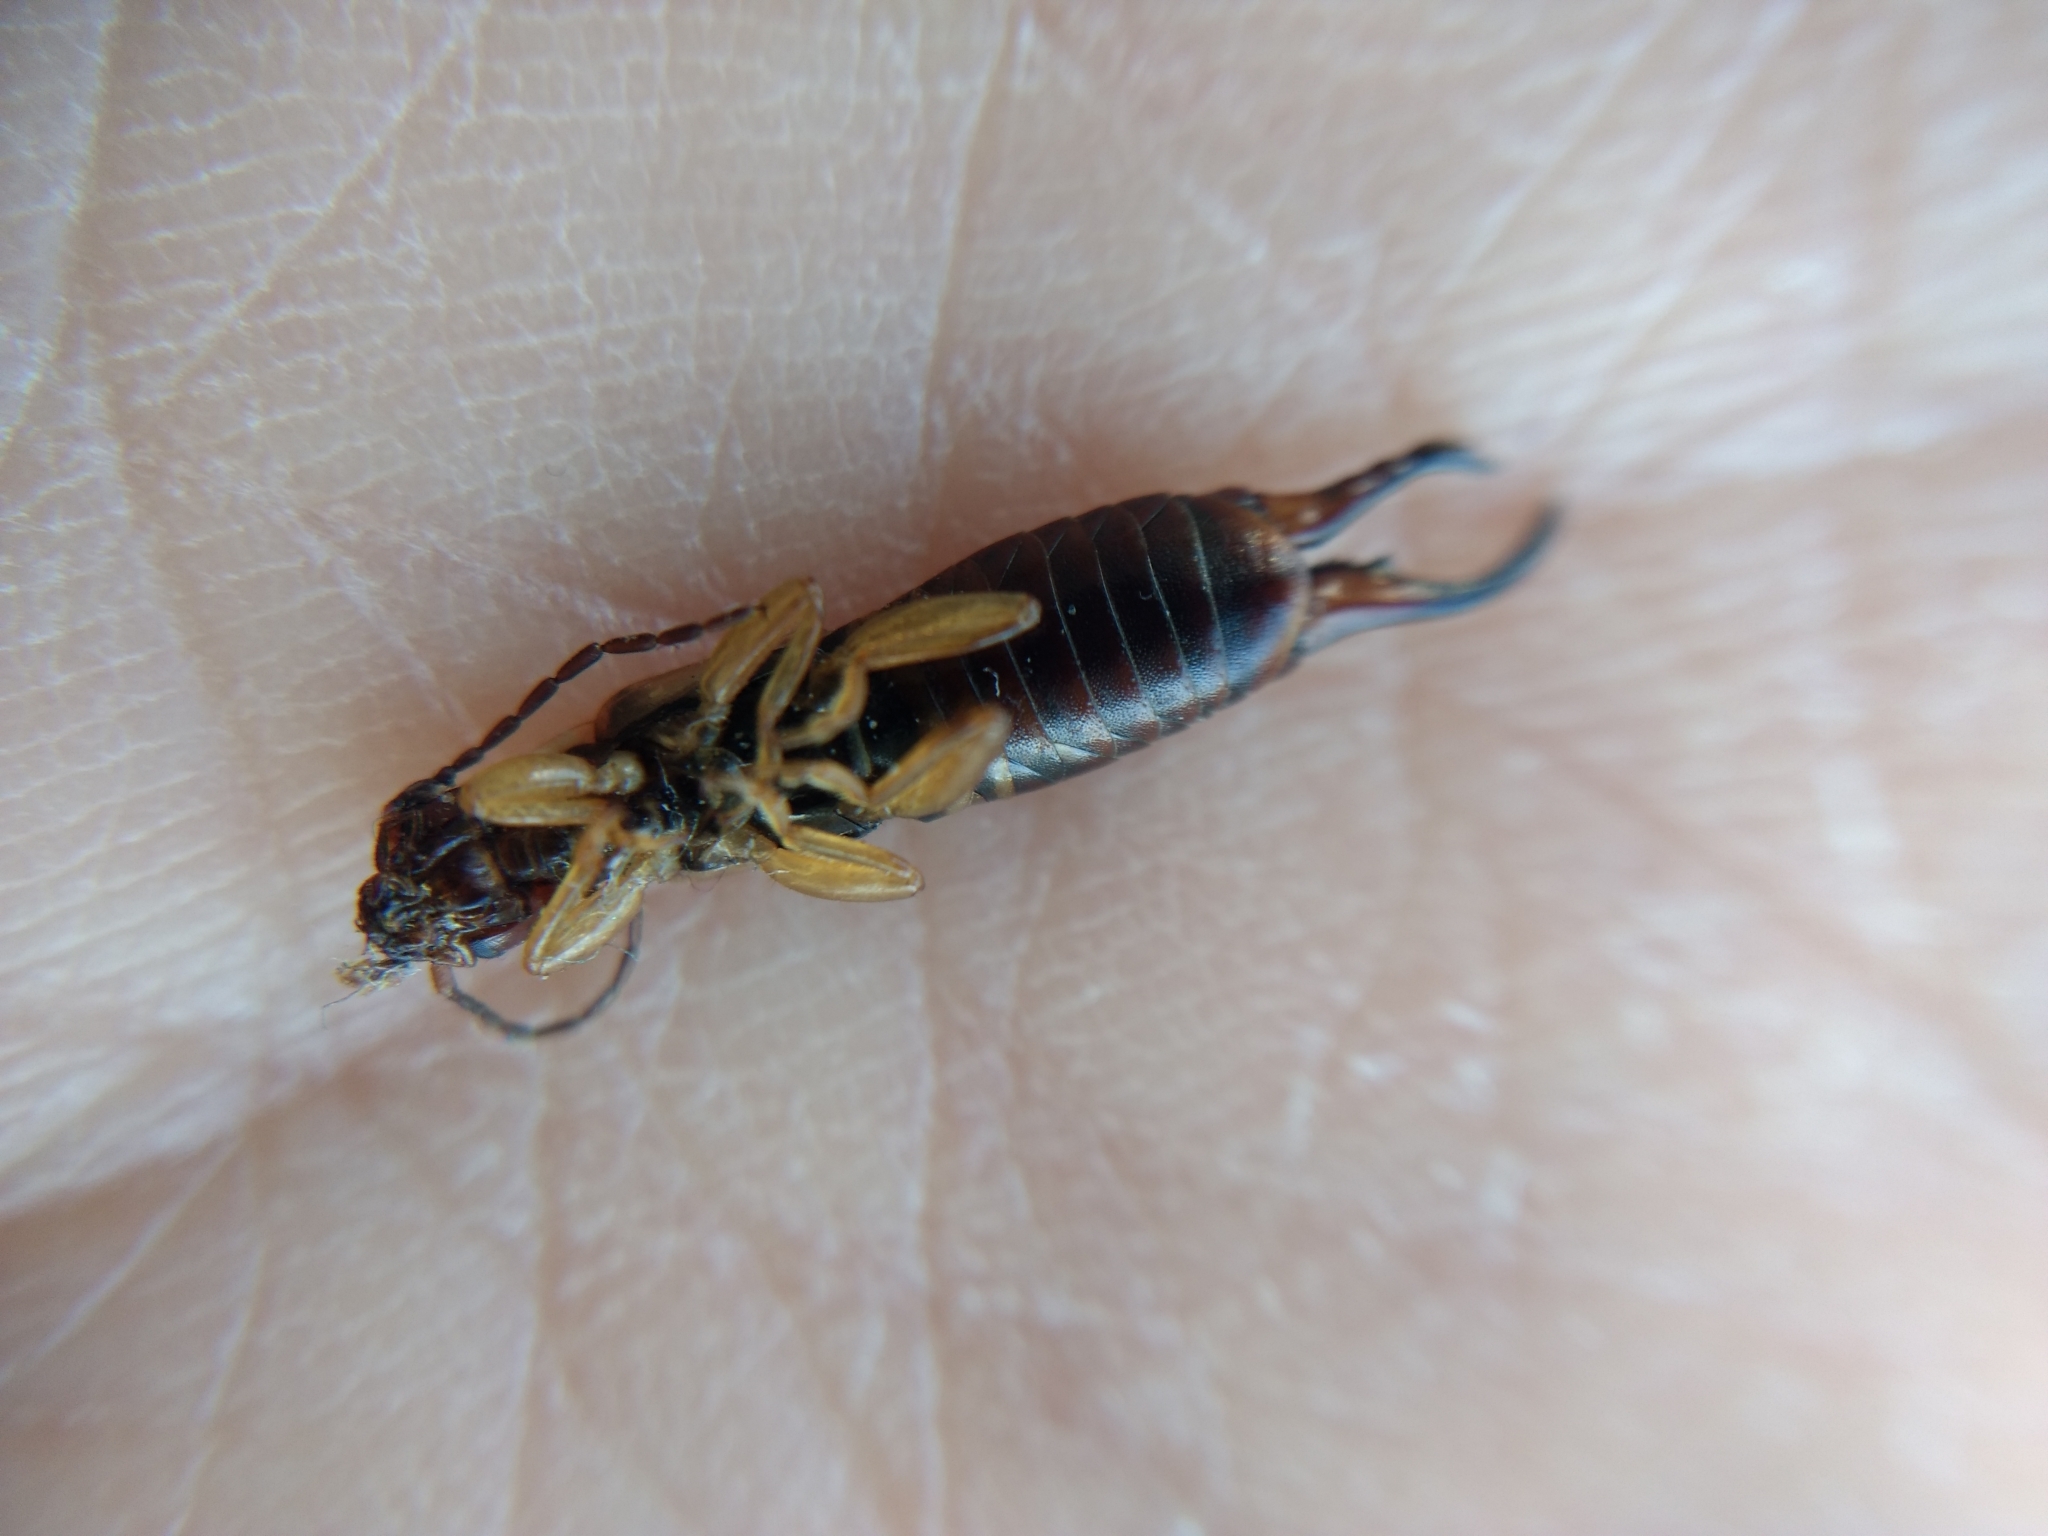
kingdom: Animalia
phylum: Arthropoda
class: Insecta
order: Dermaptera
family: Forficulidae
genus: Forficula
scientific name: Forficula
